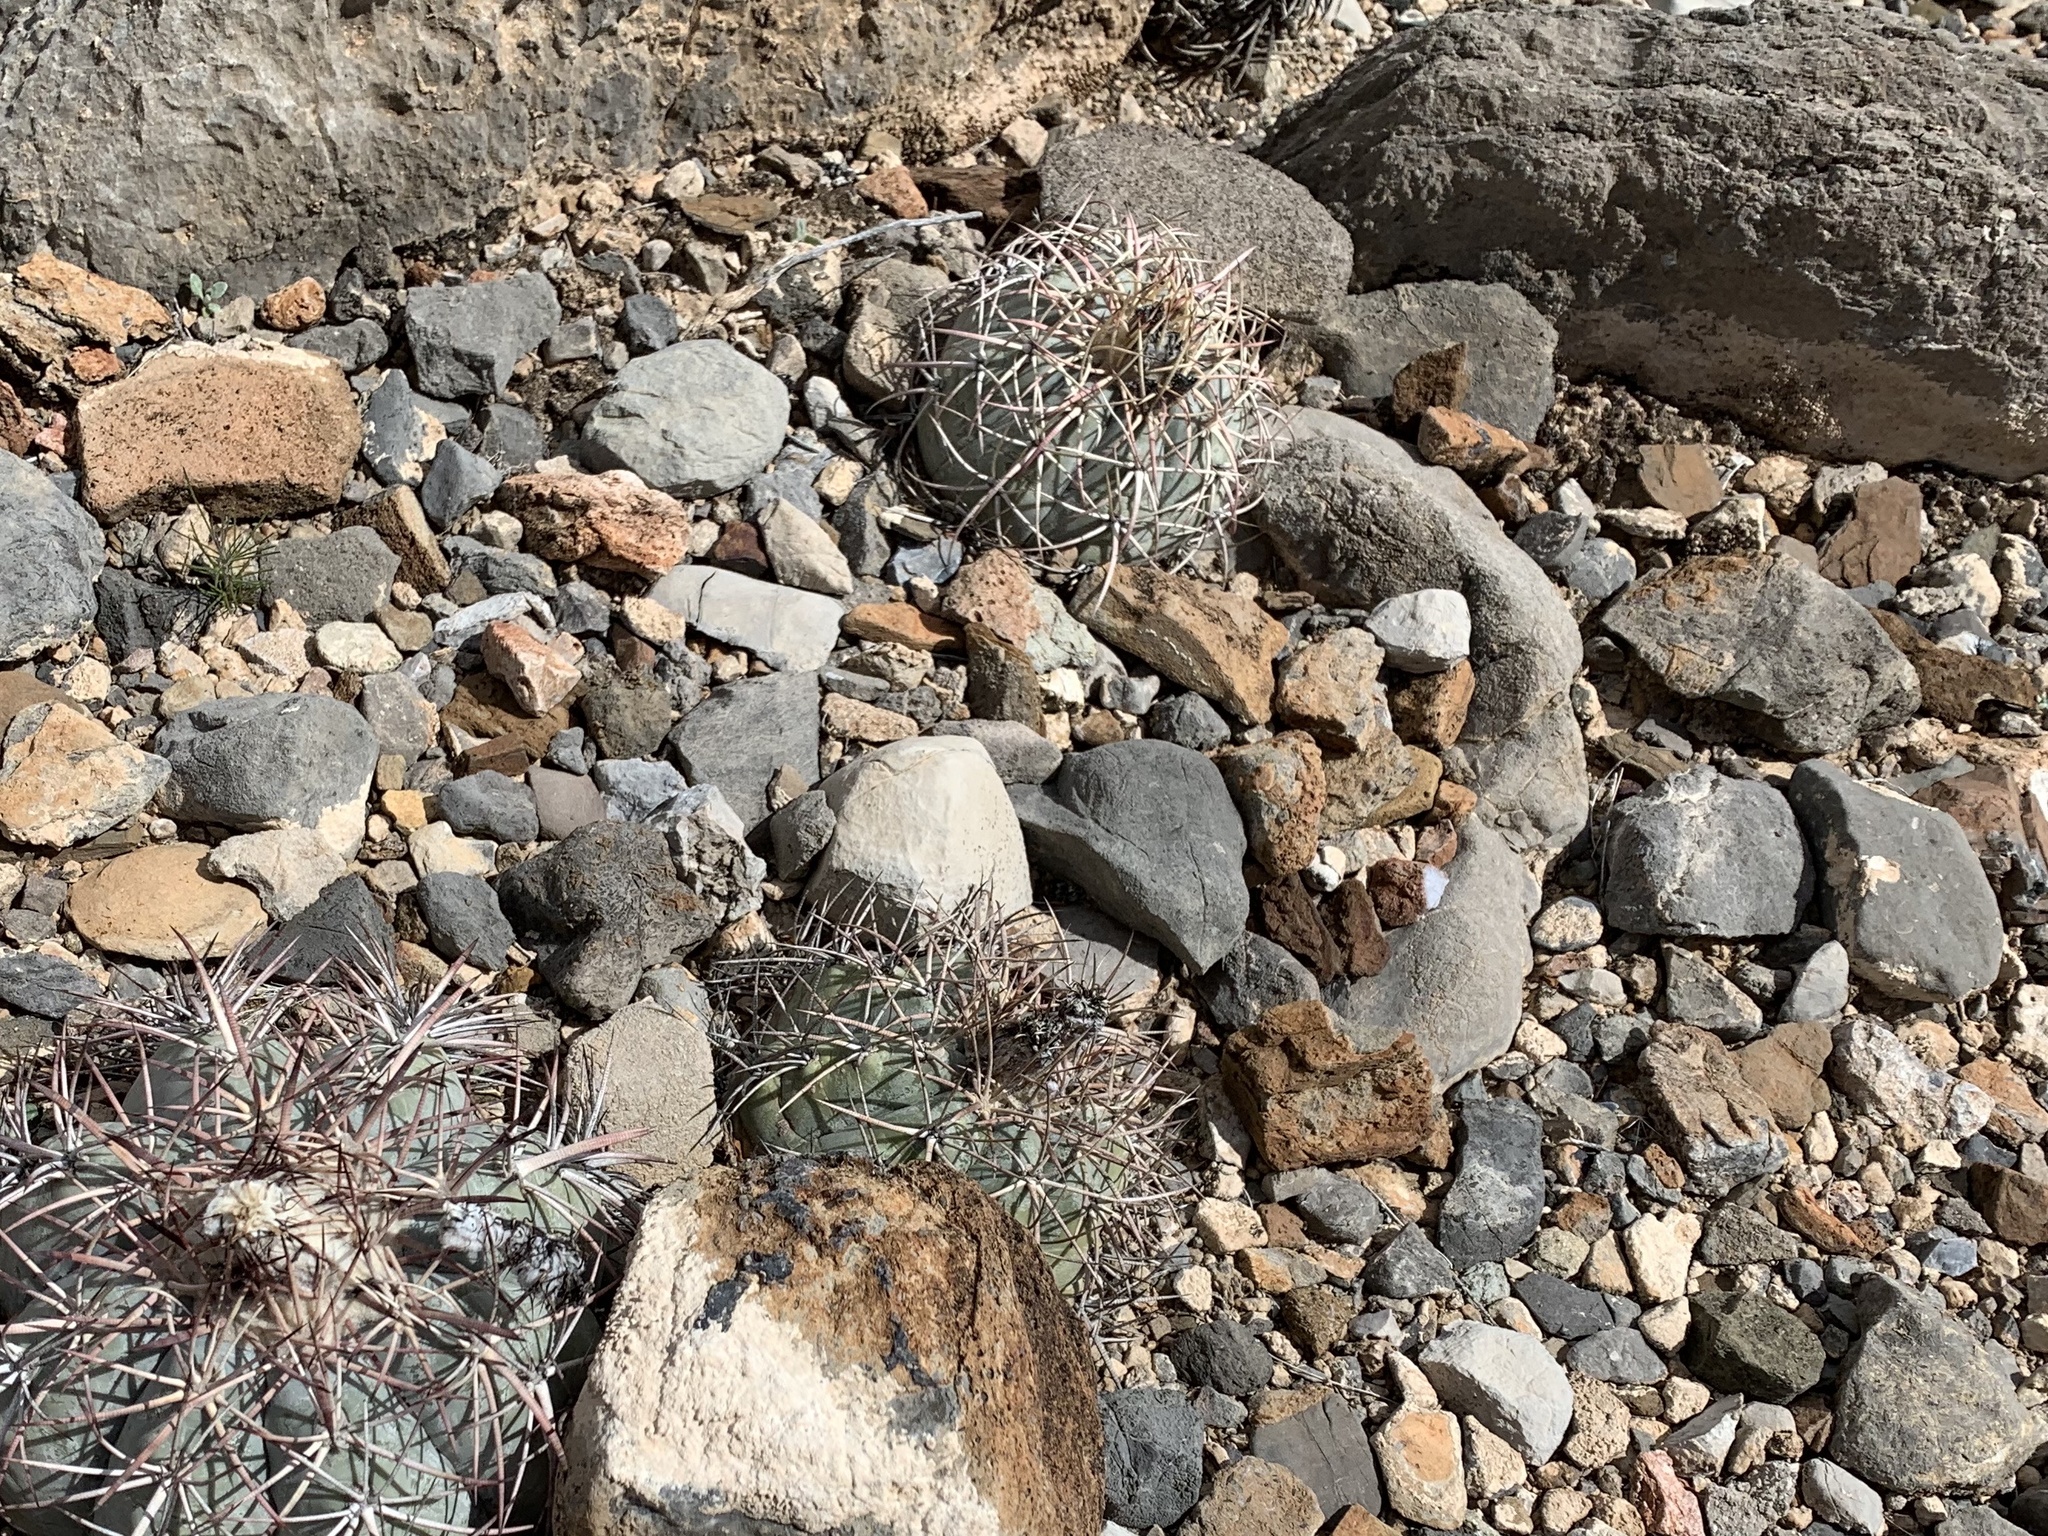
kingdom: Plantae
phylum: Tracheophyta
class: Magnoliopsida
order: Caryophyllales
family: Cactaceae
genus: Echinocactus
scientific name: Echinocactus horizonthalonius
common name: Devilshead
